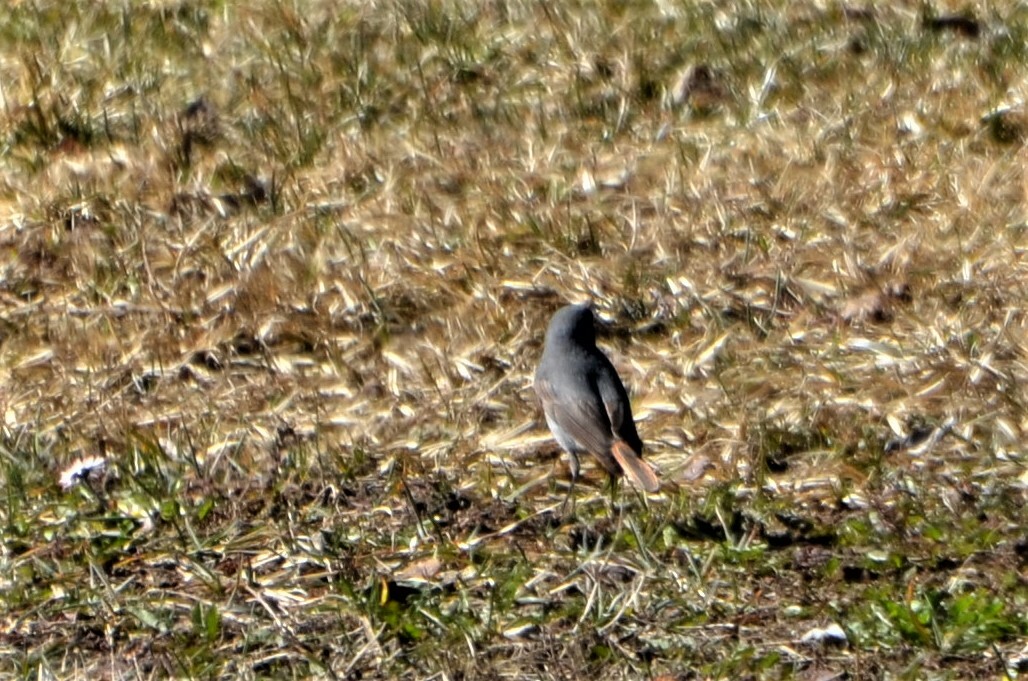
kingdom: Animalia
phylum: Chordata
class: Aves
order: Passeriformes
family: Muscicapidae
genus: Phoenicurus
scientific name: Phoenicurus ochruros
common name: Black redstart
